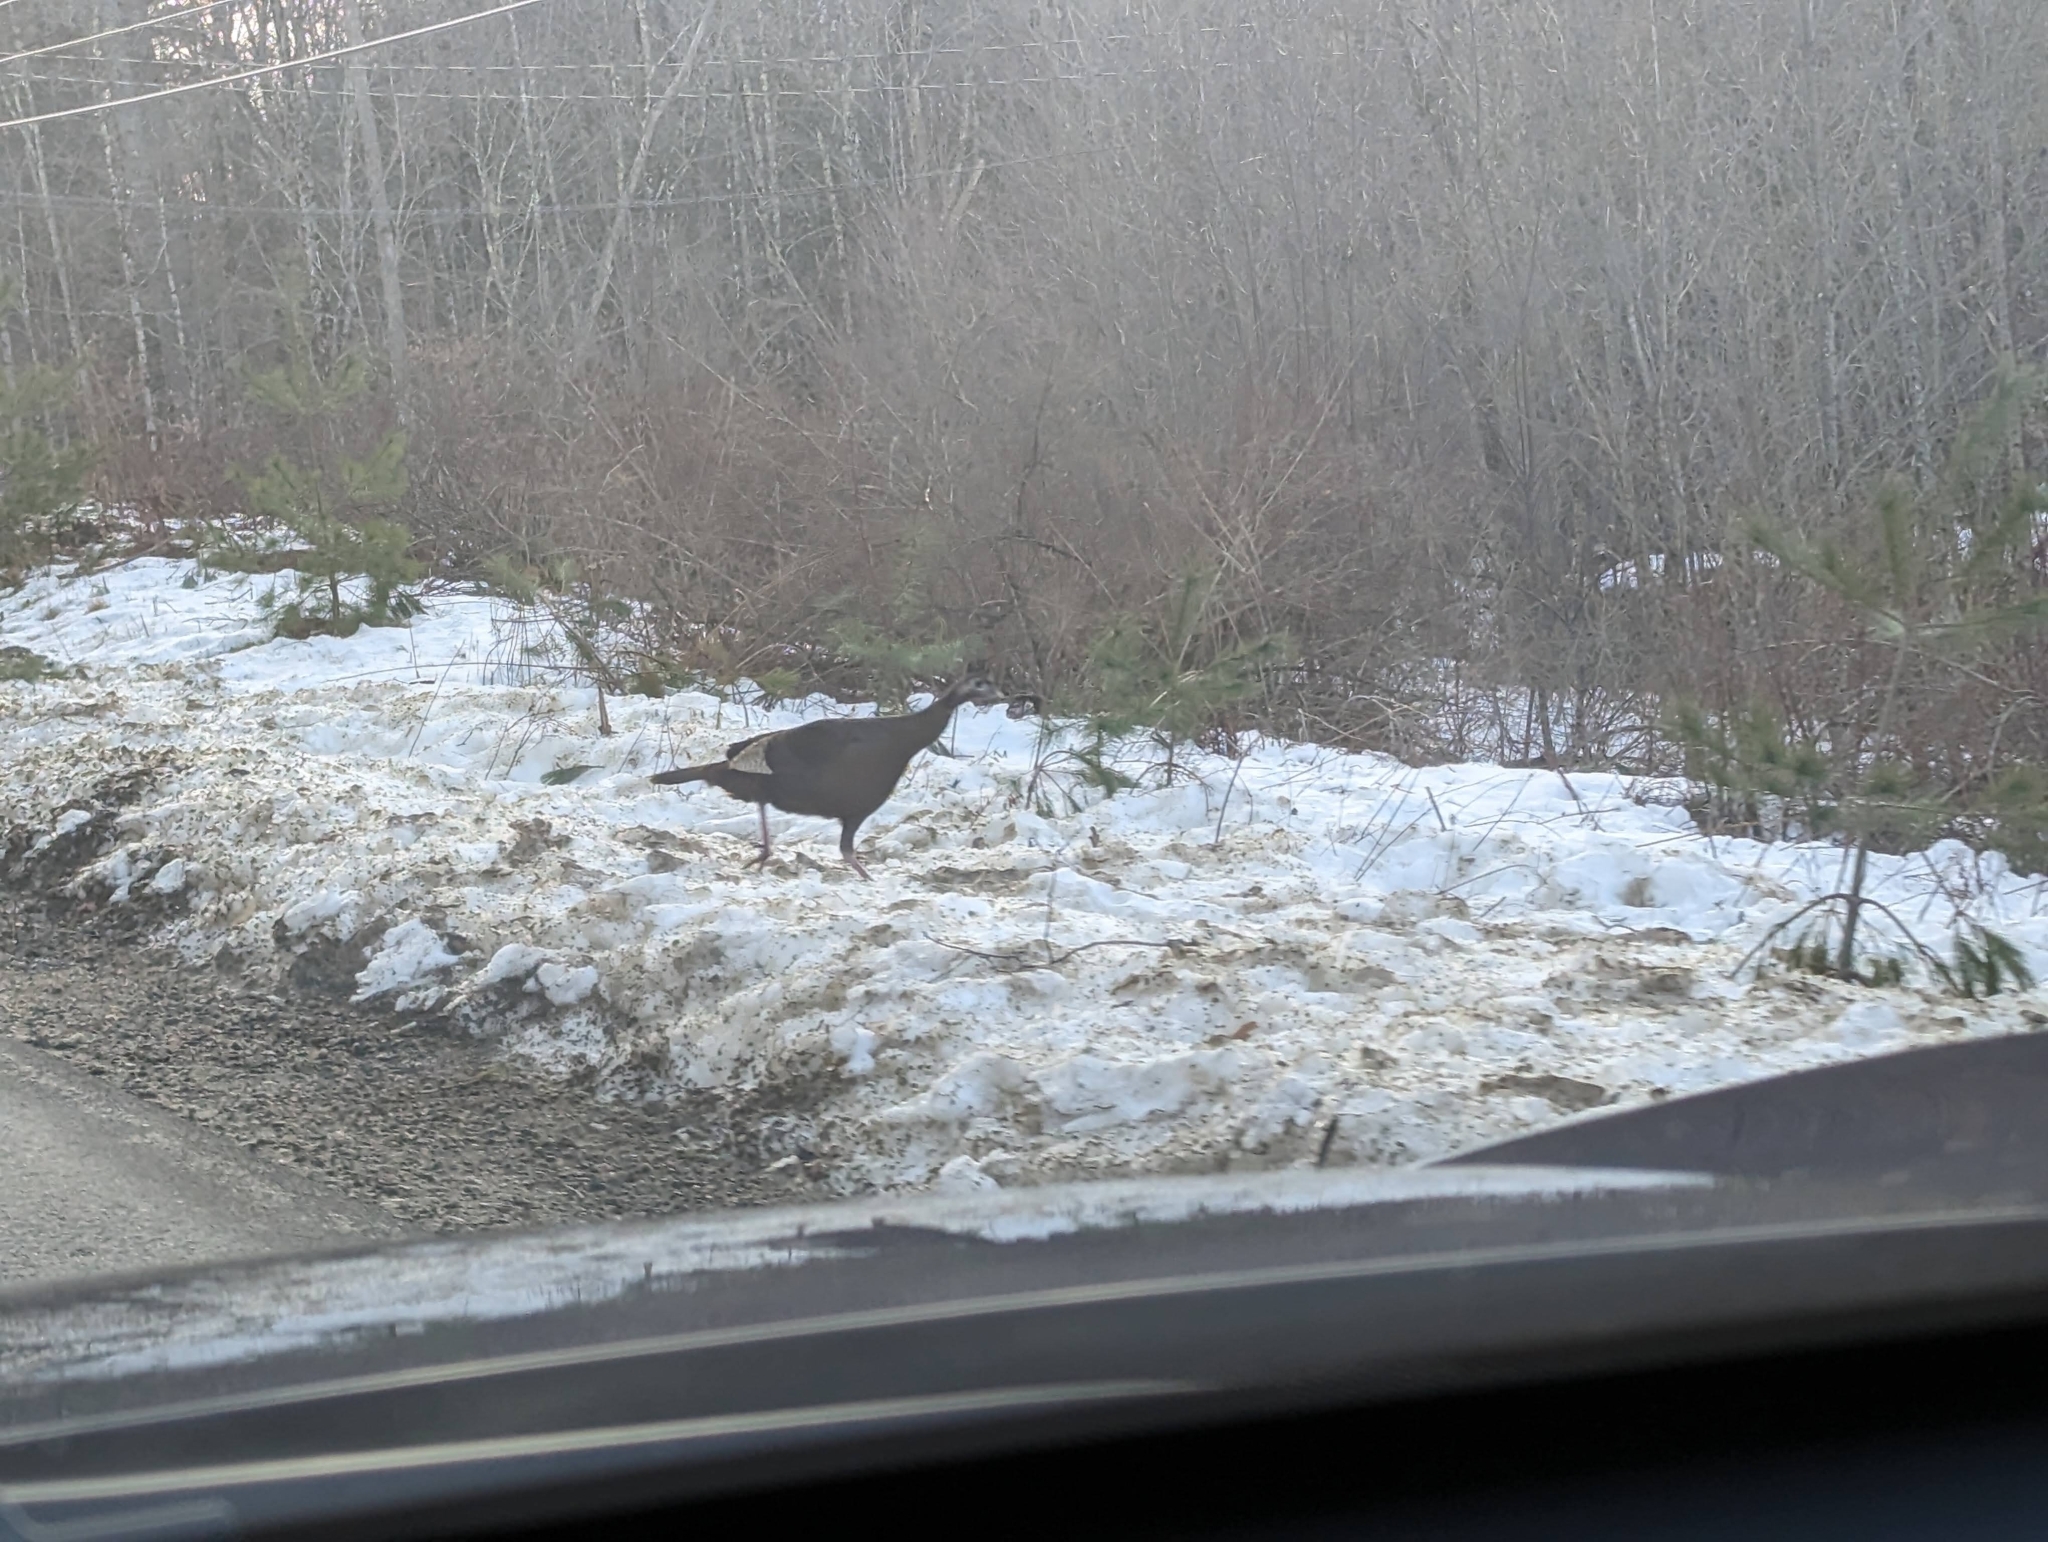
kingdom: Animalia
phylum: Chordata
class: Aves
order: Galliformes
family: Phasianidae
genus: Meleagris
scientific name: Meleagris gallopavo
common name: Wild turkey
